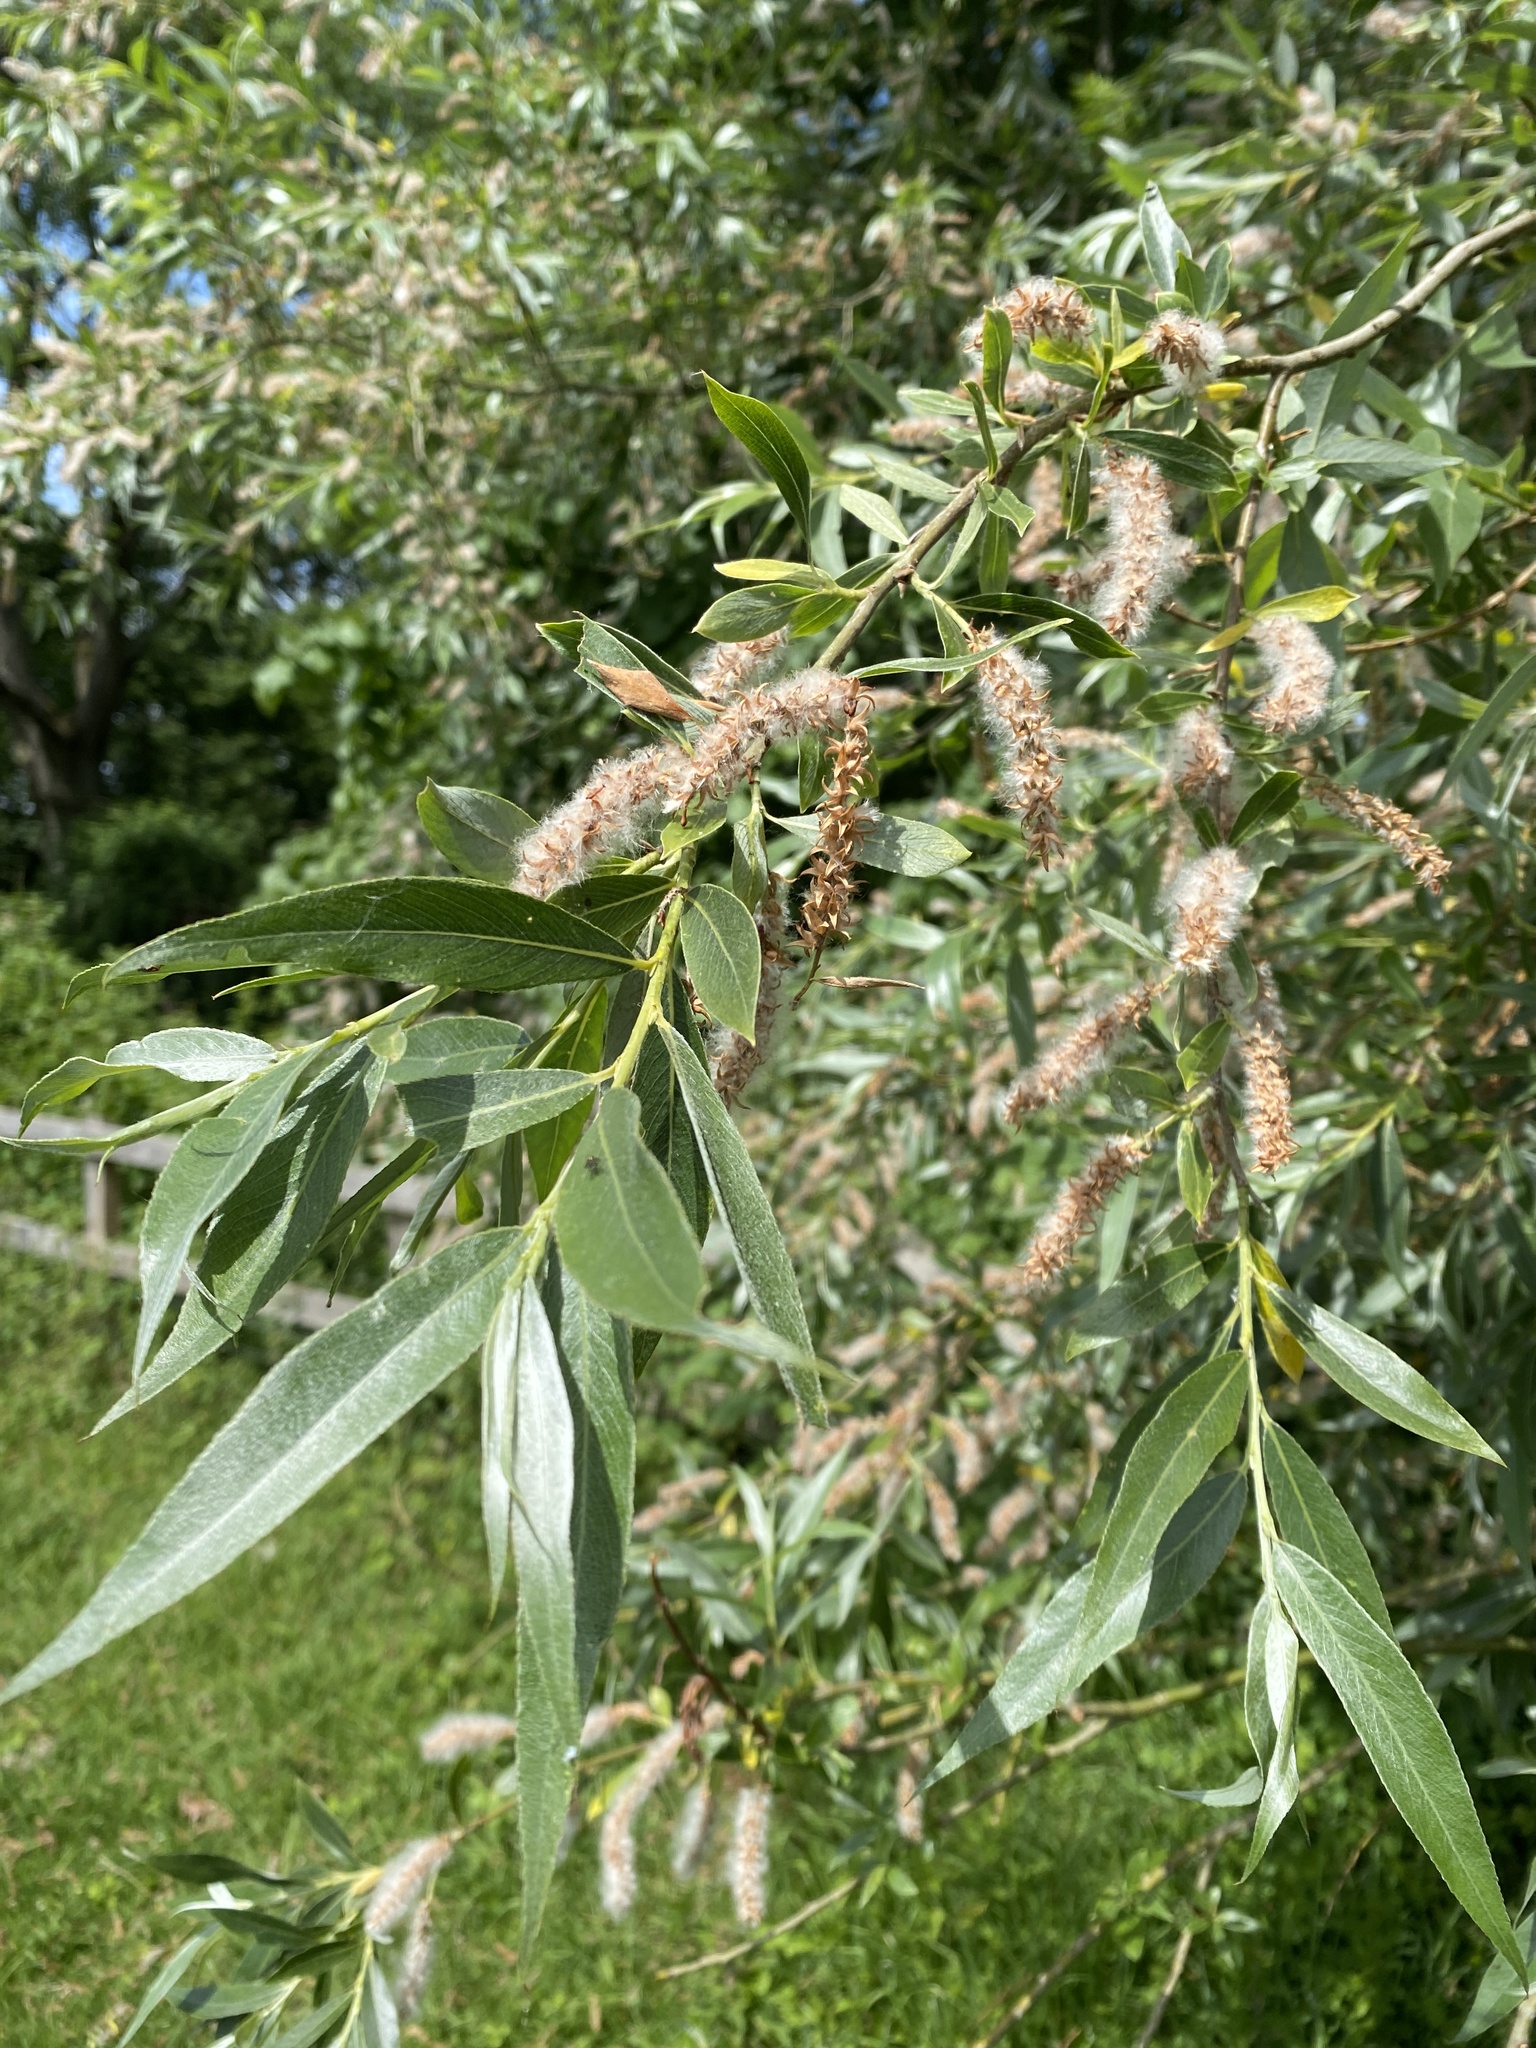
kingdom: Plantae
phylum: Tracheophyta
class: Magnoliopsida
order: Malpighiales
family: Salicaceae
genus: Salix
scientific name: Salix alba
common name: White willow
